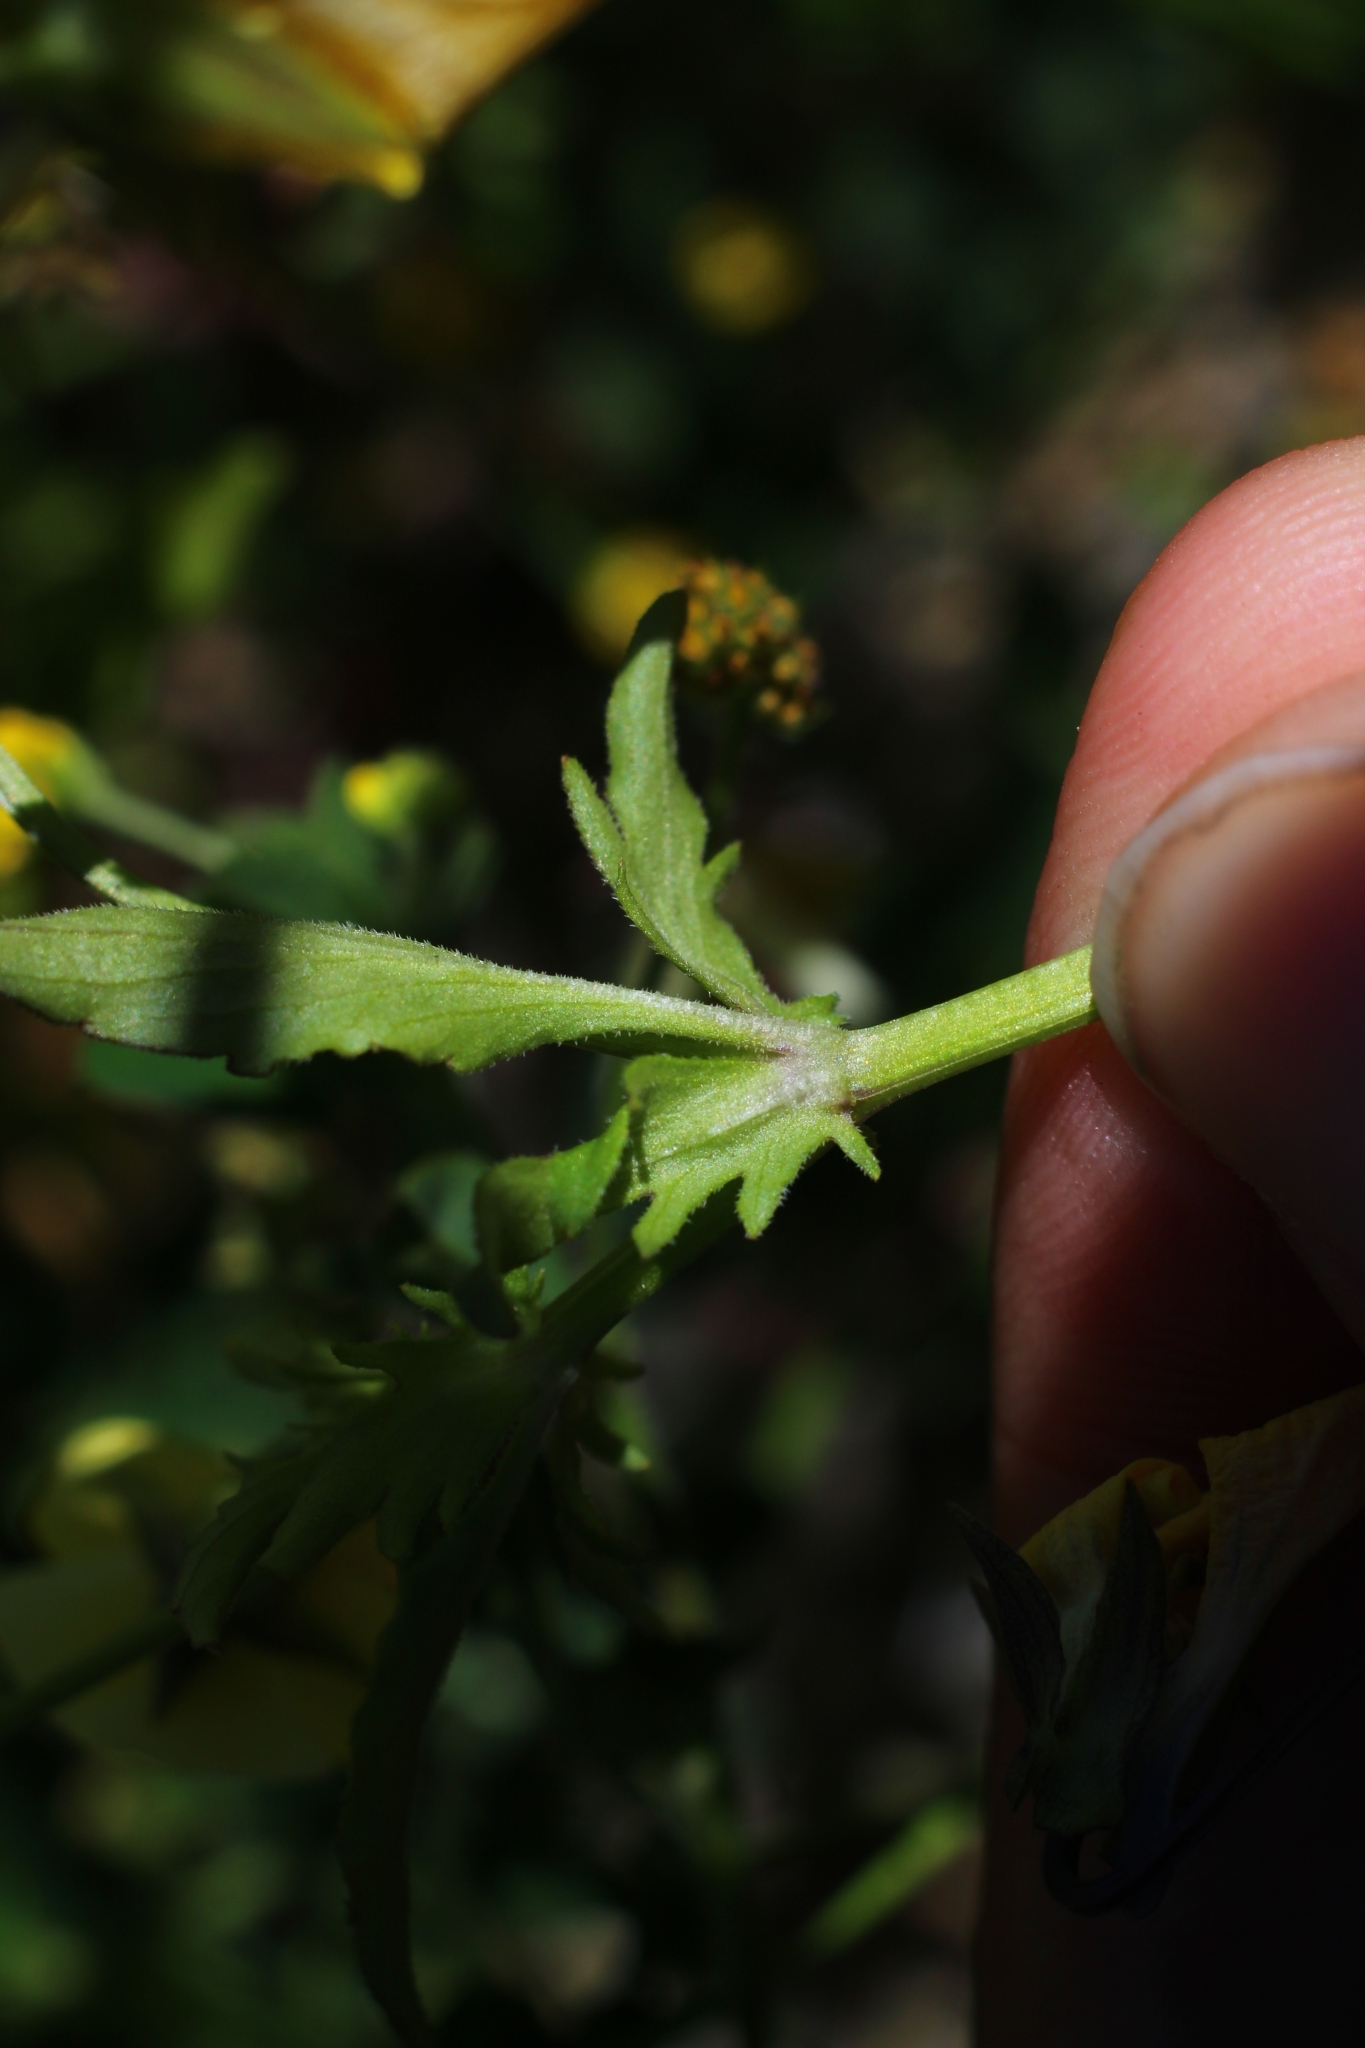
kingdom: Plantae
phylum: Tracheophyta
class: Magnoliopsida
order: Malpighiales
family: Violaceae
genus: Viola
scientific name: Viola tricolor
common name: Pansy
